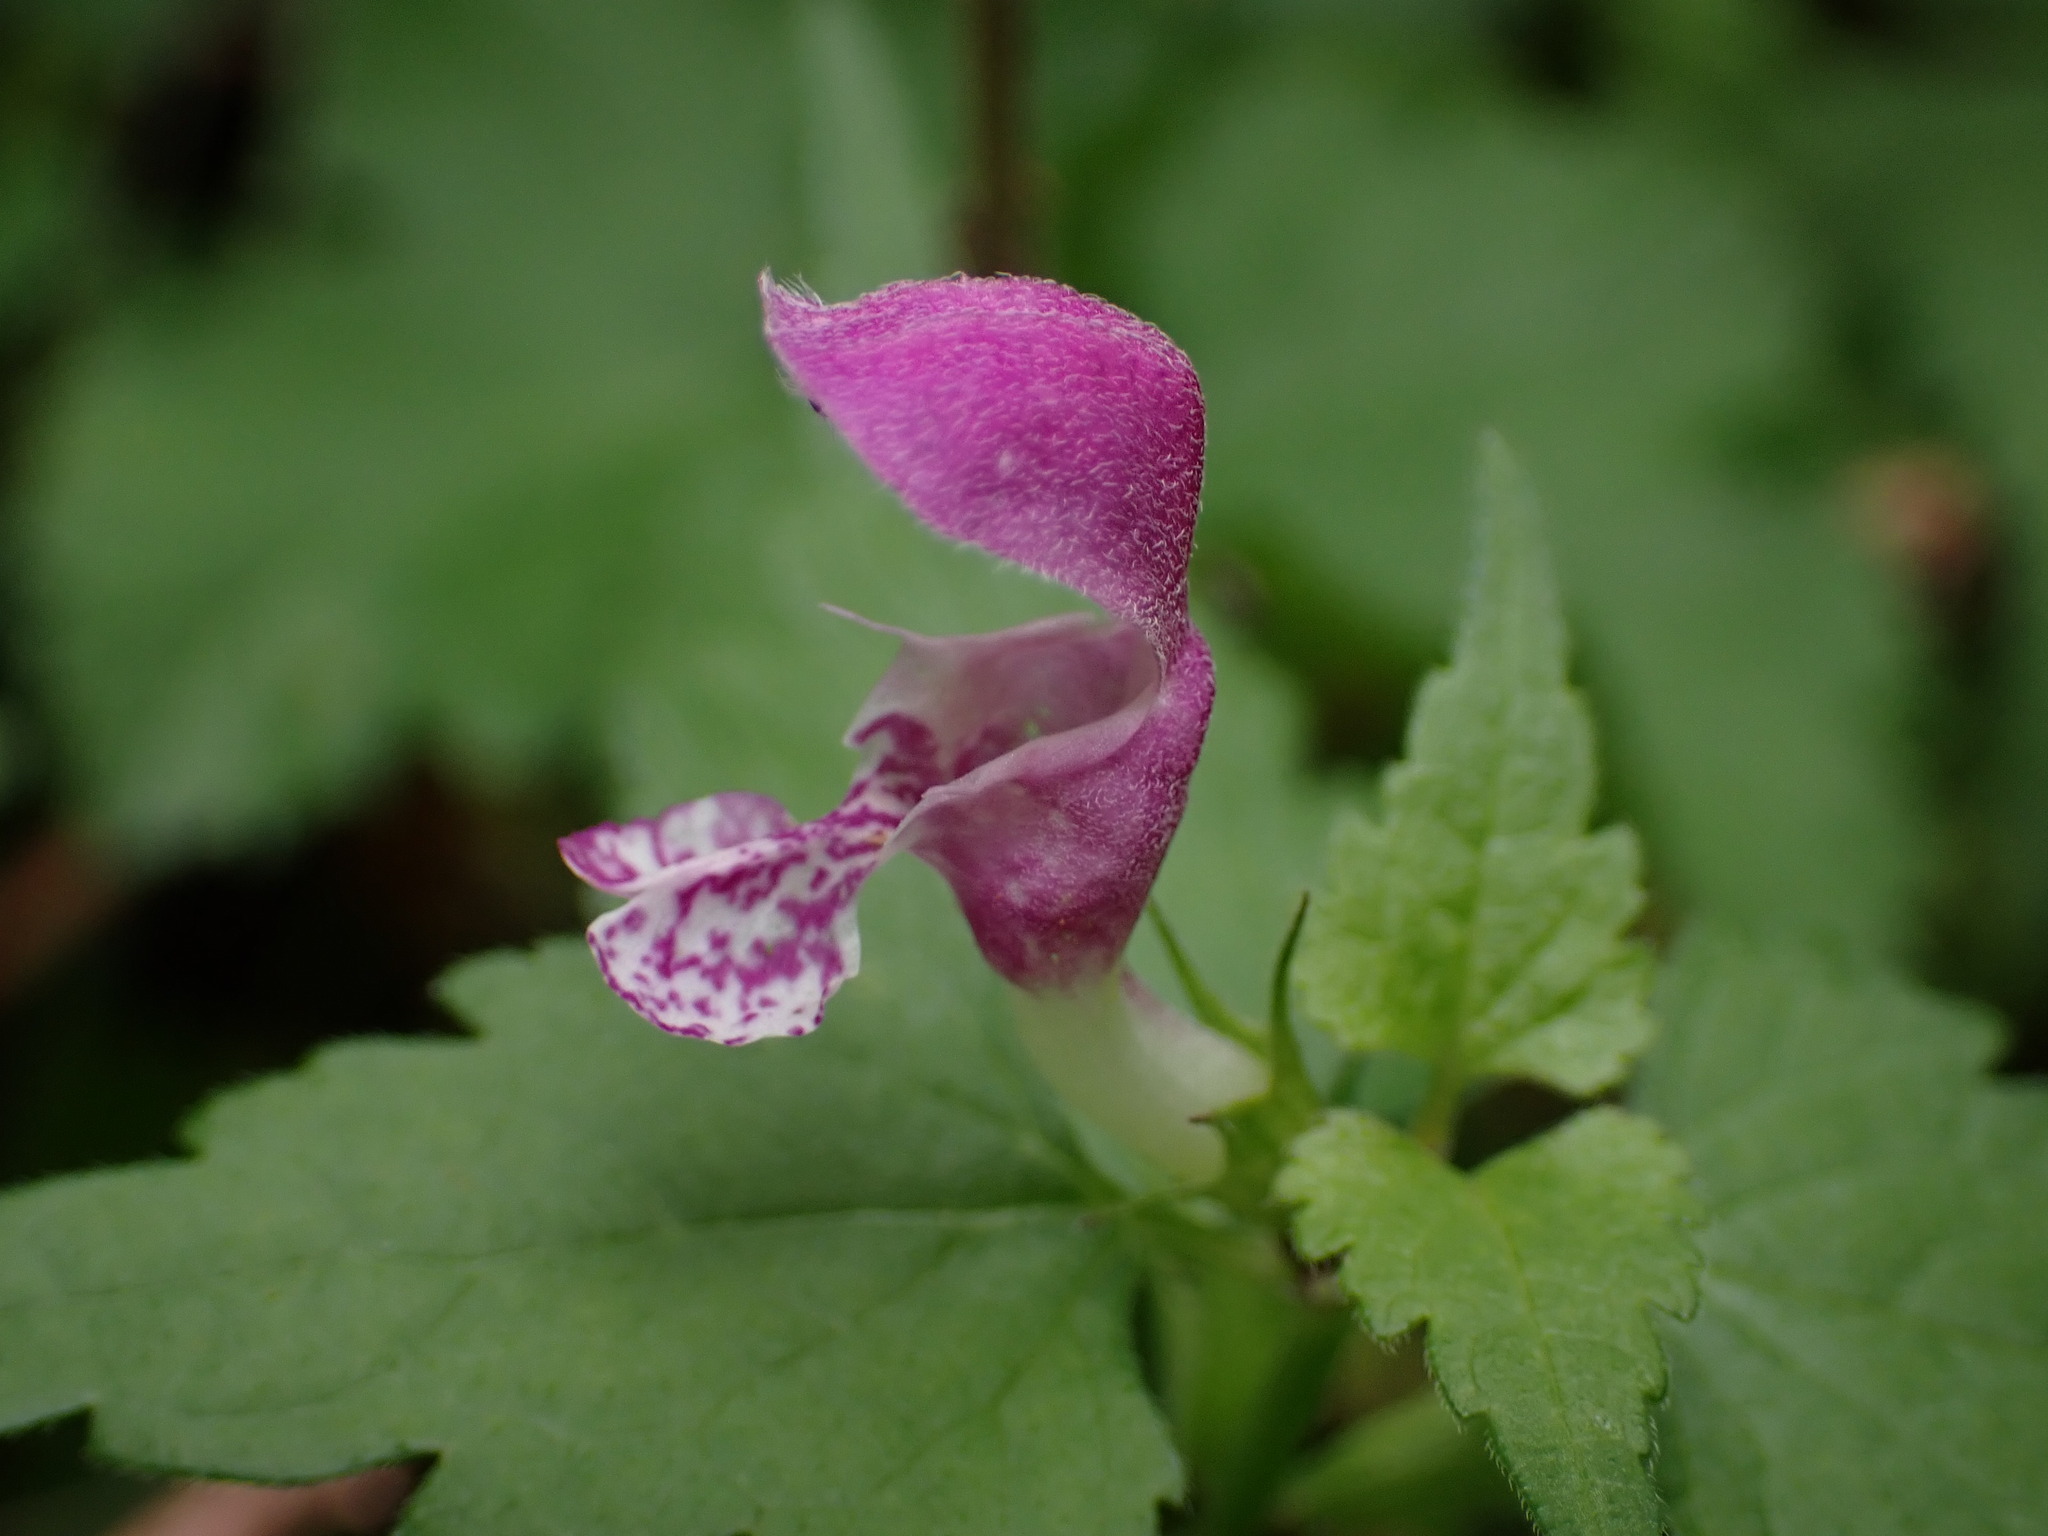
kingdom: Plantae
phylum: Tracheophyta
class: Magnoliopsida
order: Lamiales
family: Lamiaceae
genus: Lamium
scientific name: Lamium maculatum
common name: Spotted dead-nettle
